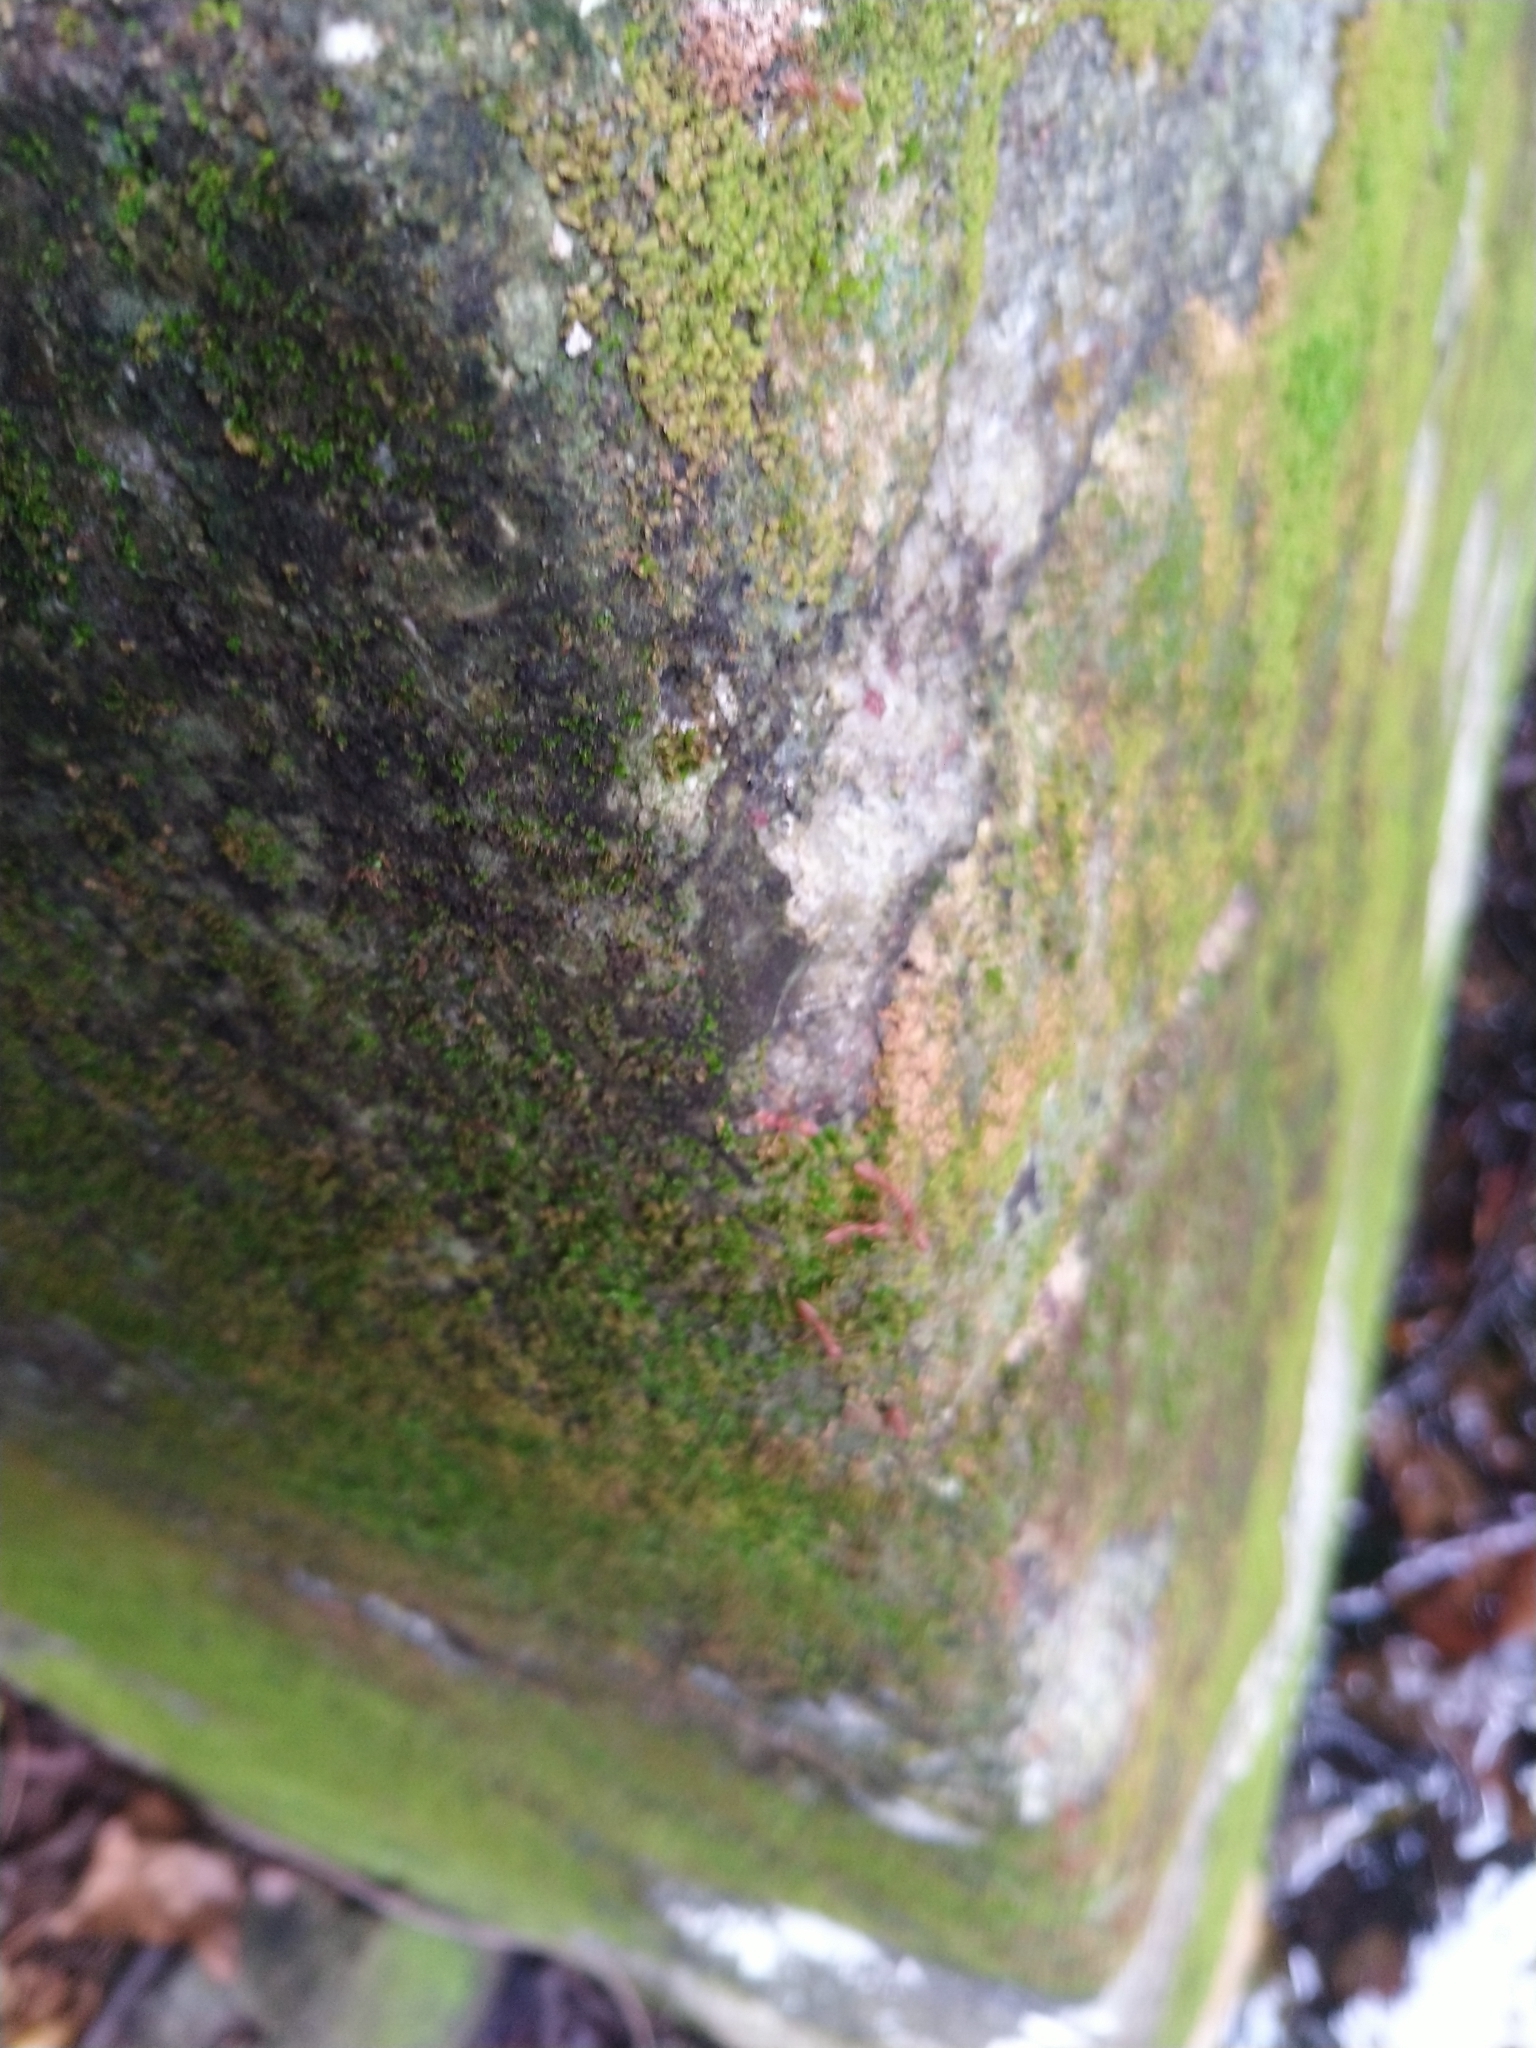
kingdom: Animalia
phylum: Arthropoda
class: Insecta
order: Hymenoptera
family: Formicidae
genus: Oecophylla
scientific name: Oecophylla smaragdina
